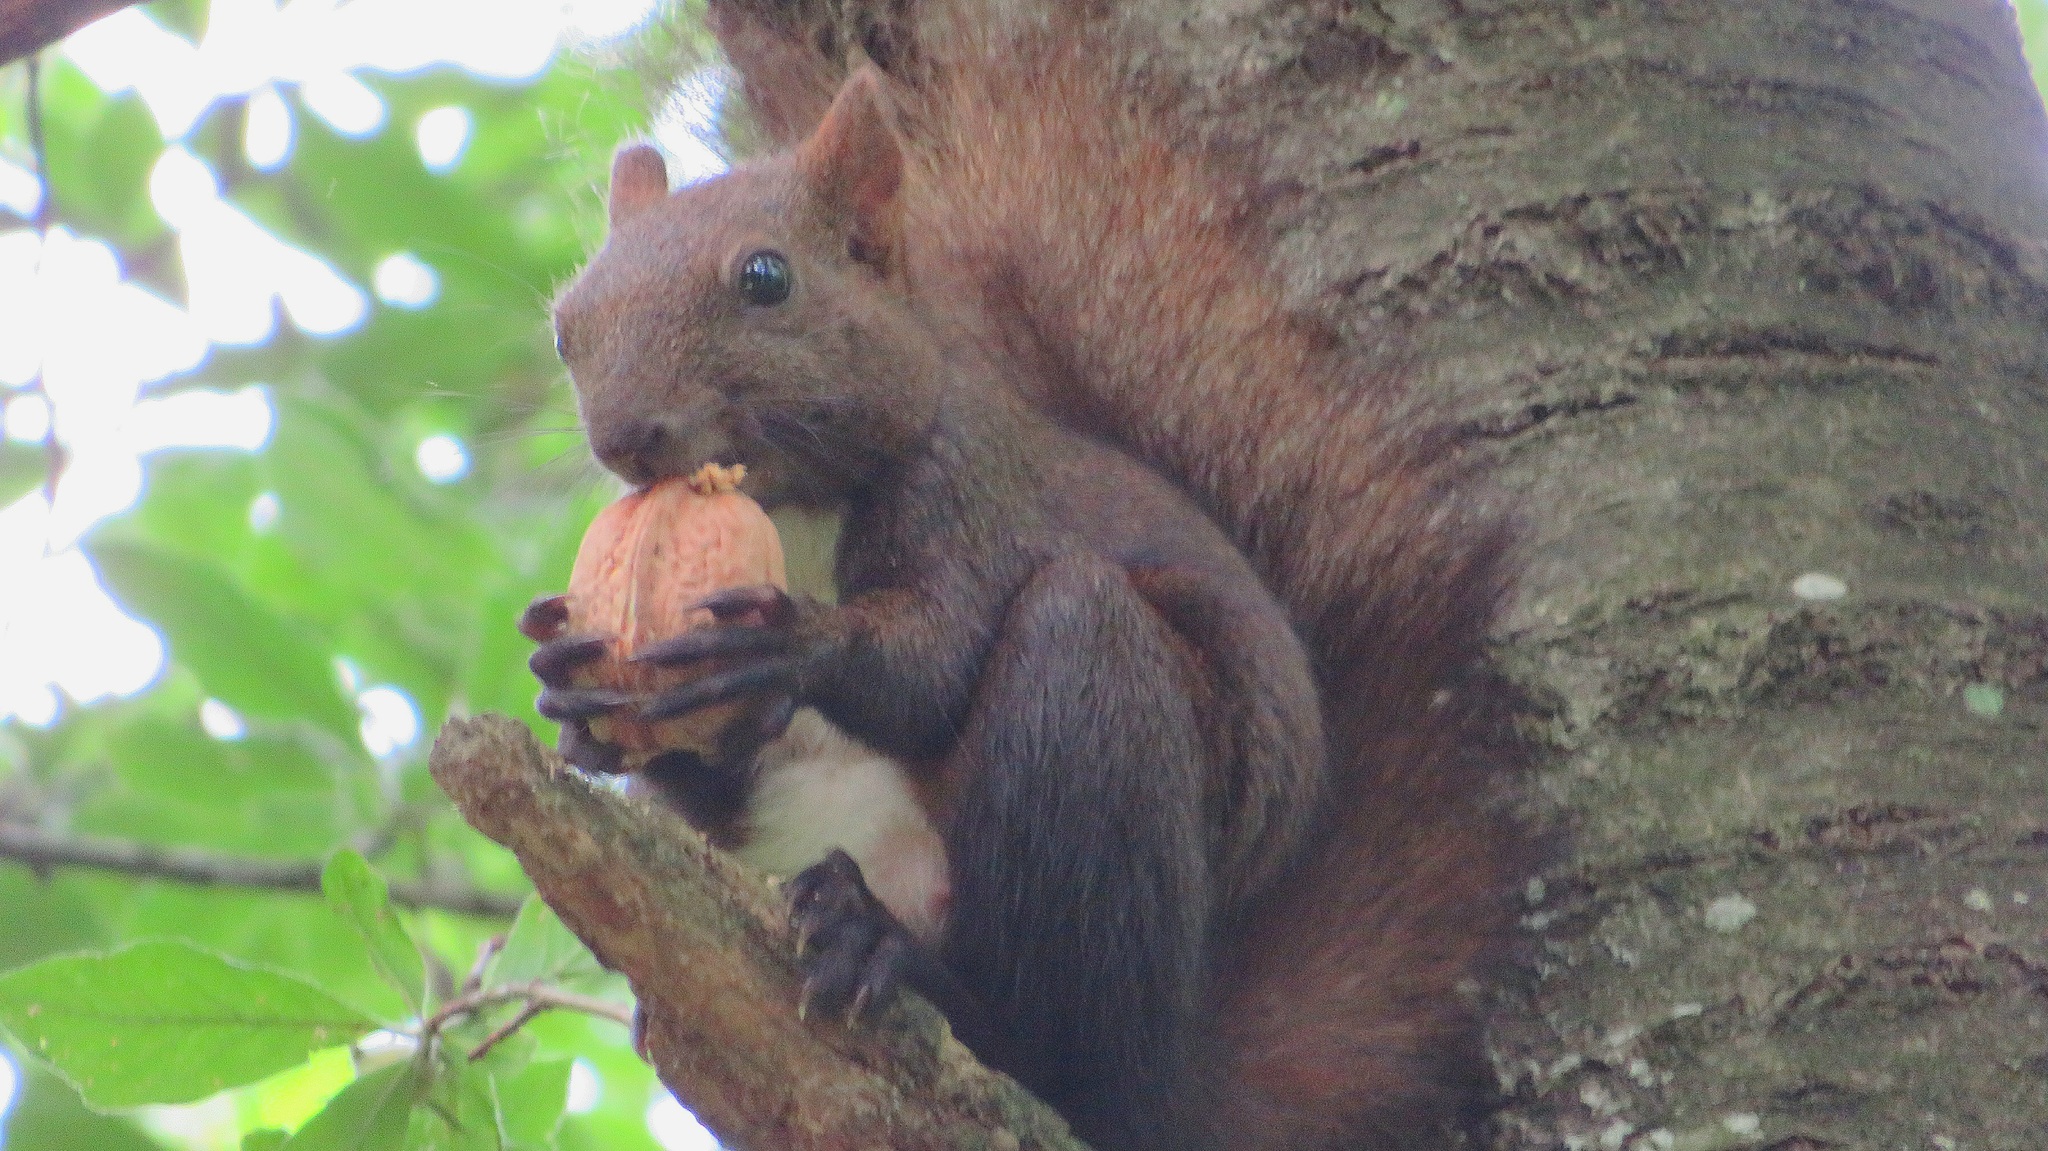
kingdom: Animalia
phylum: Chordata
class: Mammalia
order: Rodentia
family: Sciuridae
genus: Sciurus
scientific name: Sciurus vulgaris
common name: Eurasian red squirrel
